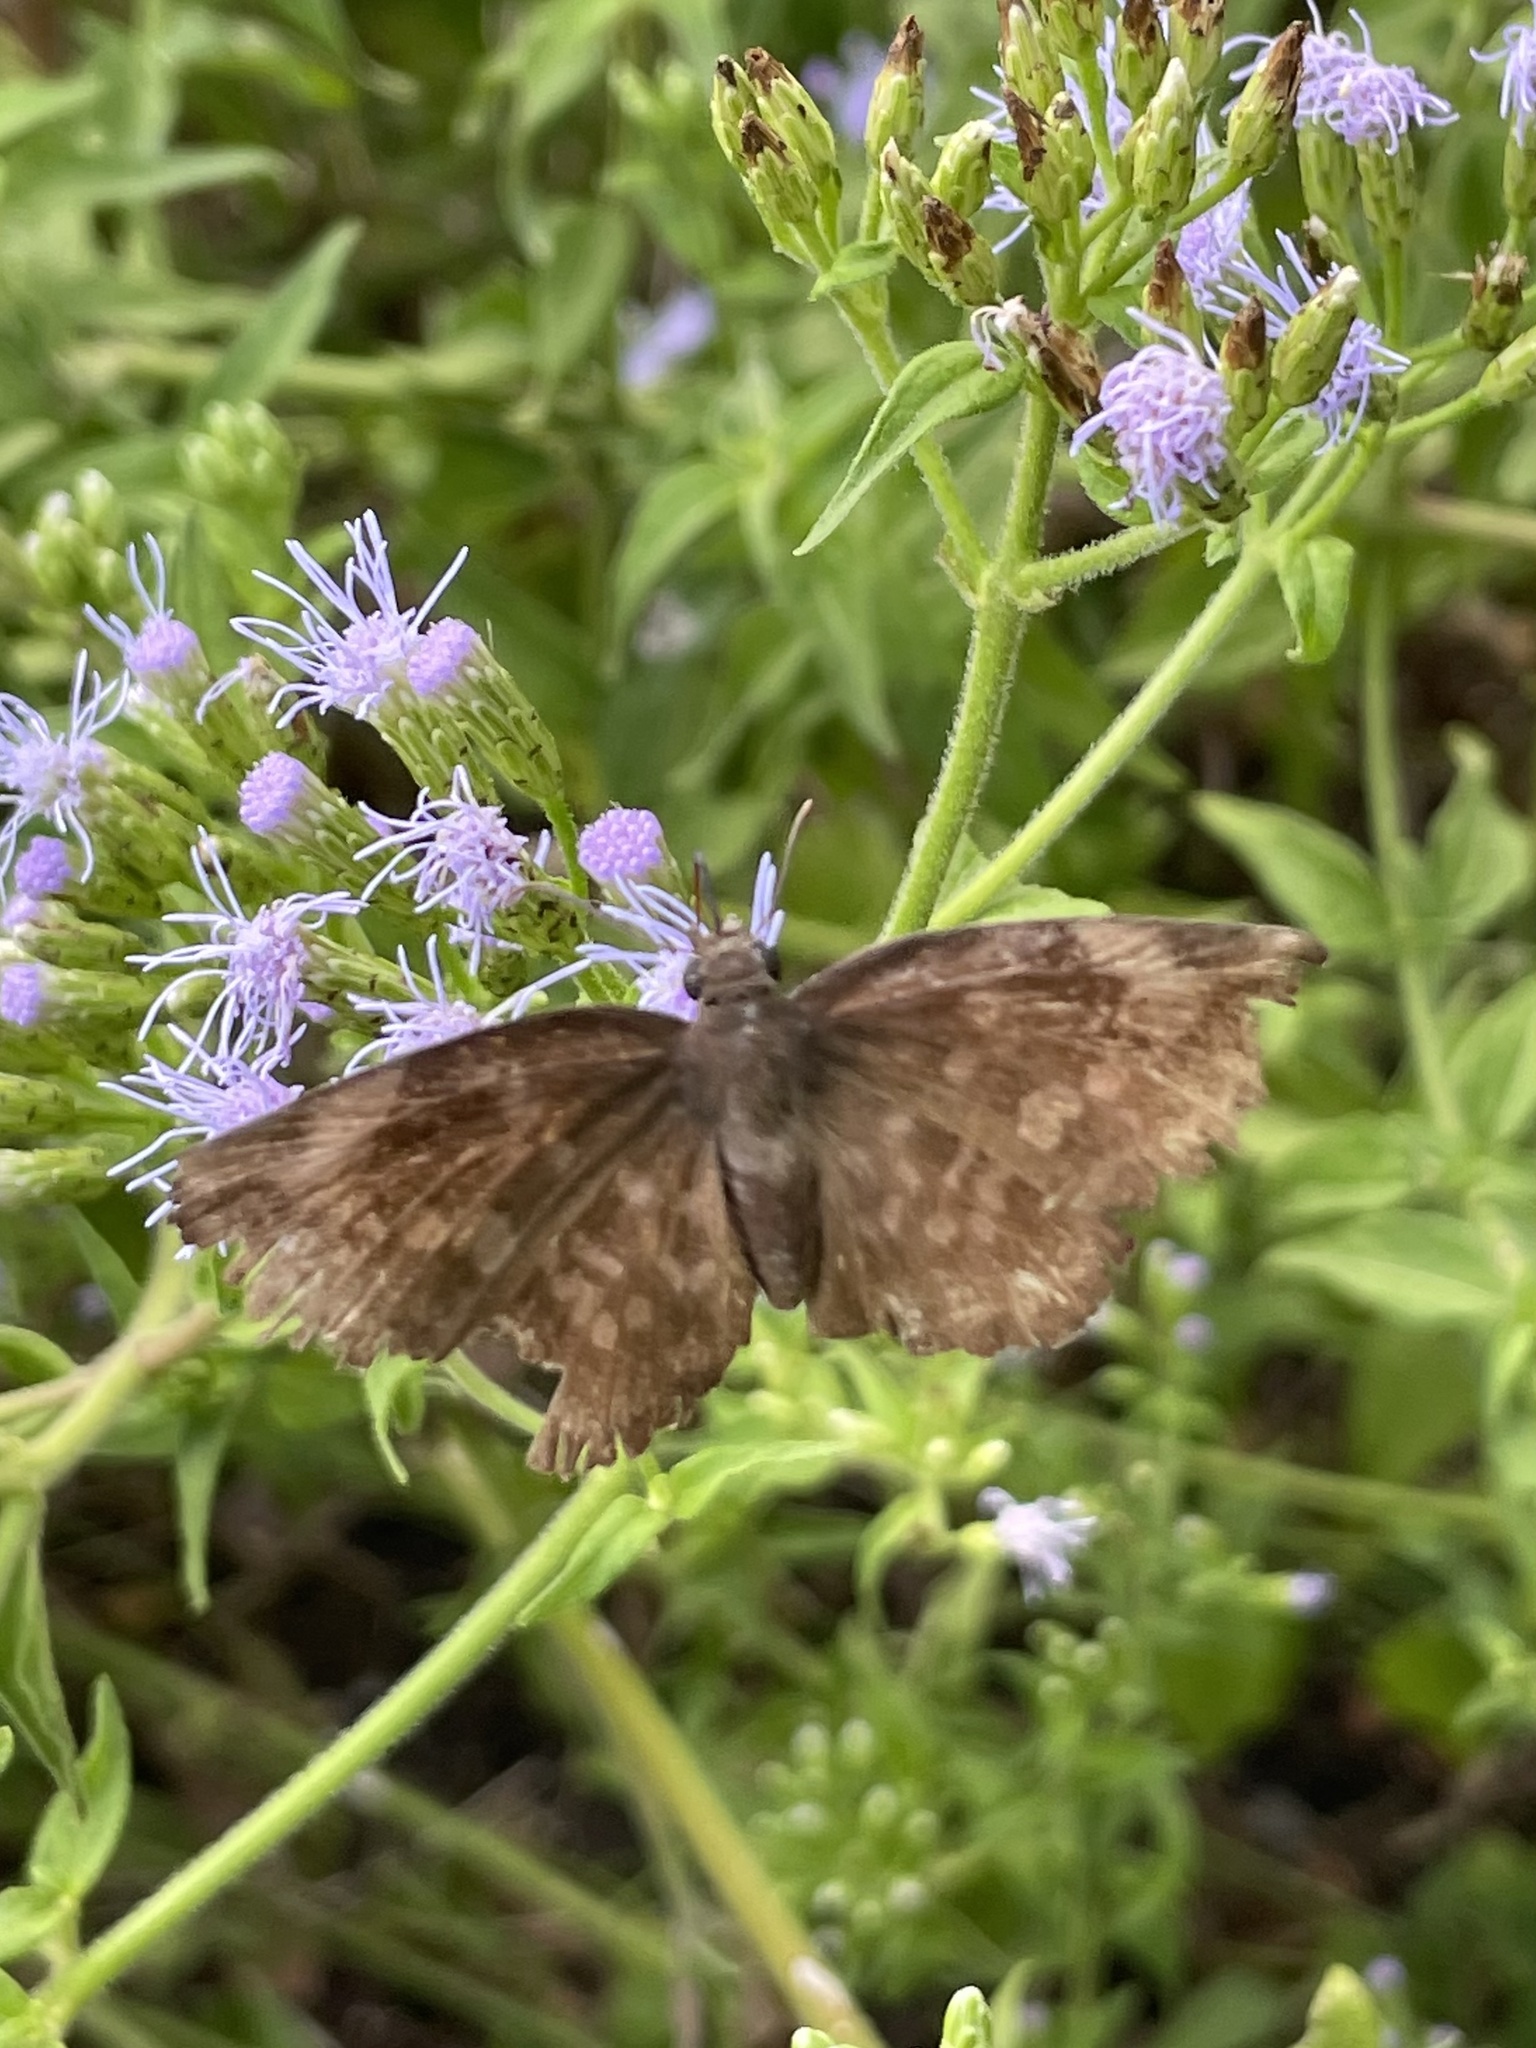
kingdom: Animalia
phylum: Arthropoda
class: Insecta
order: Lepidoptera
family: Hesperiidae
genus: Achlyodes
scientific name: Achlyodes thraso
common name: Sickle-winged skipper
